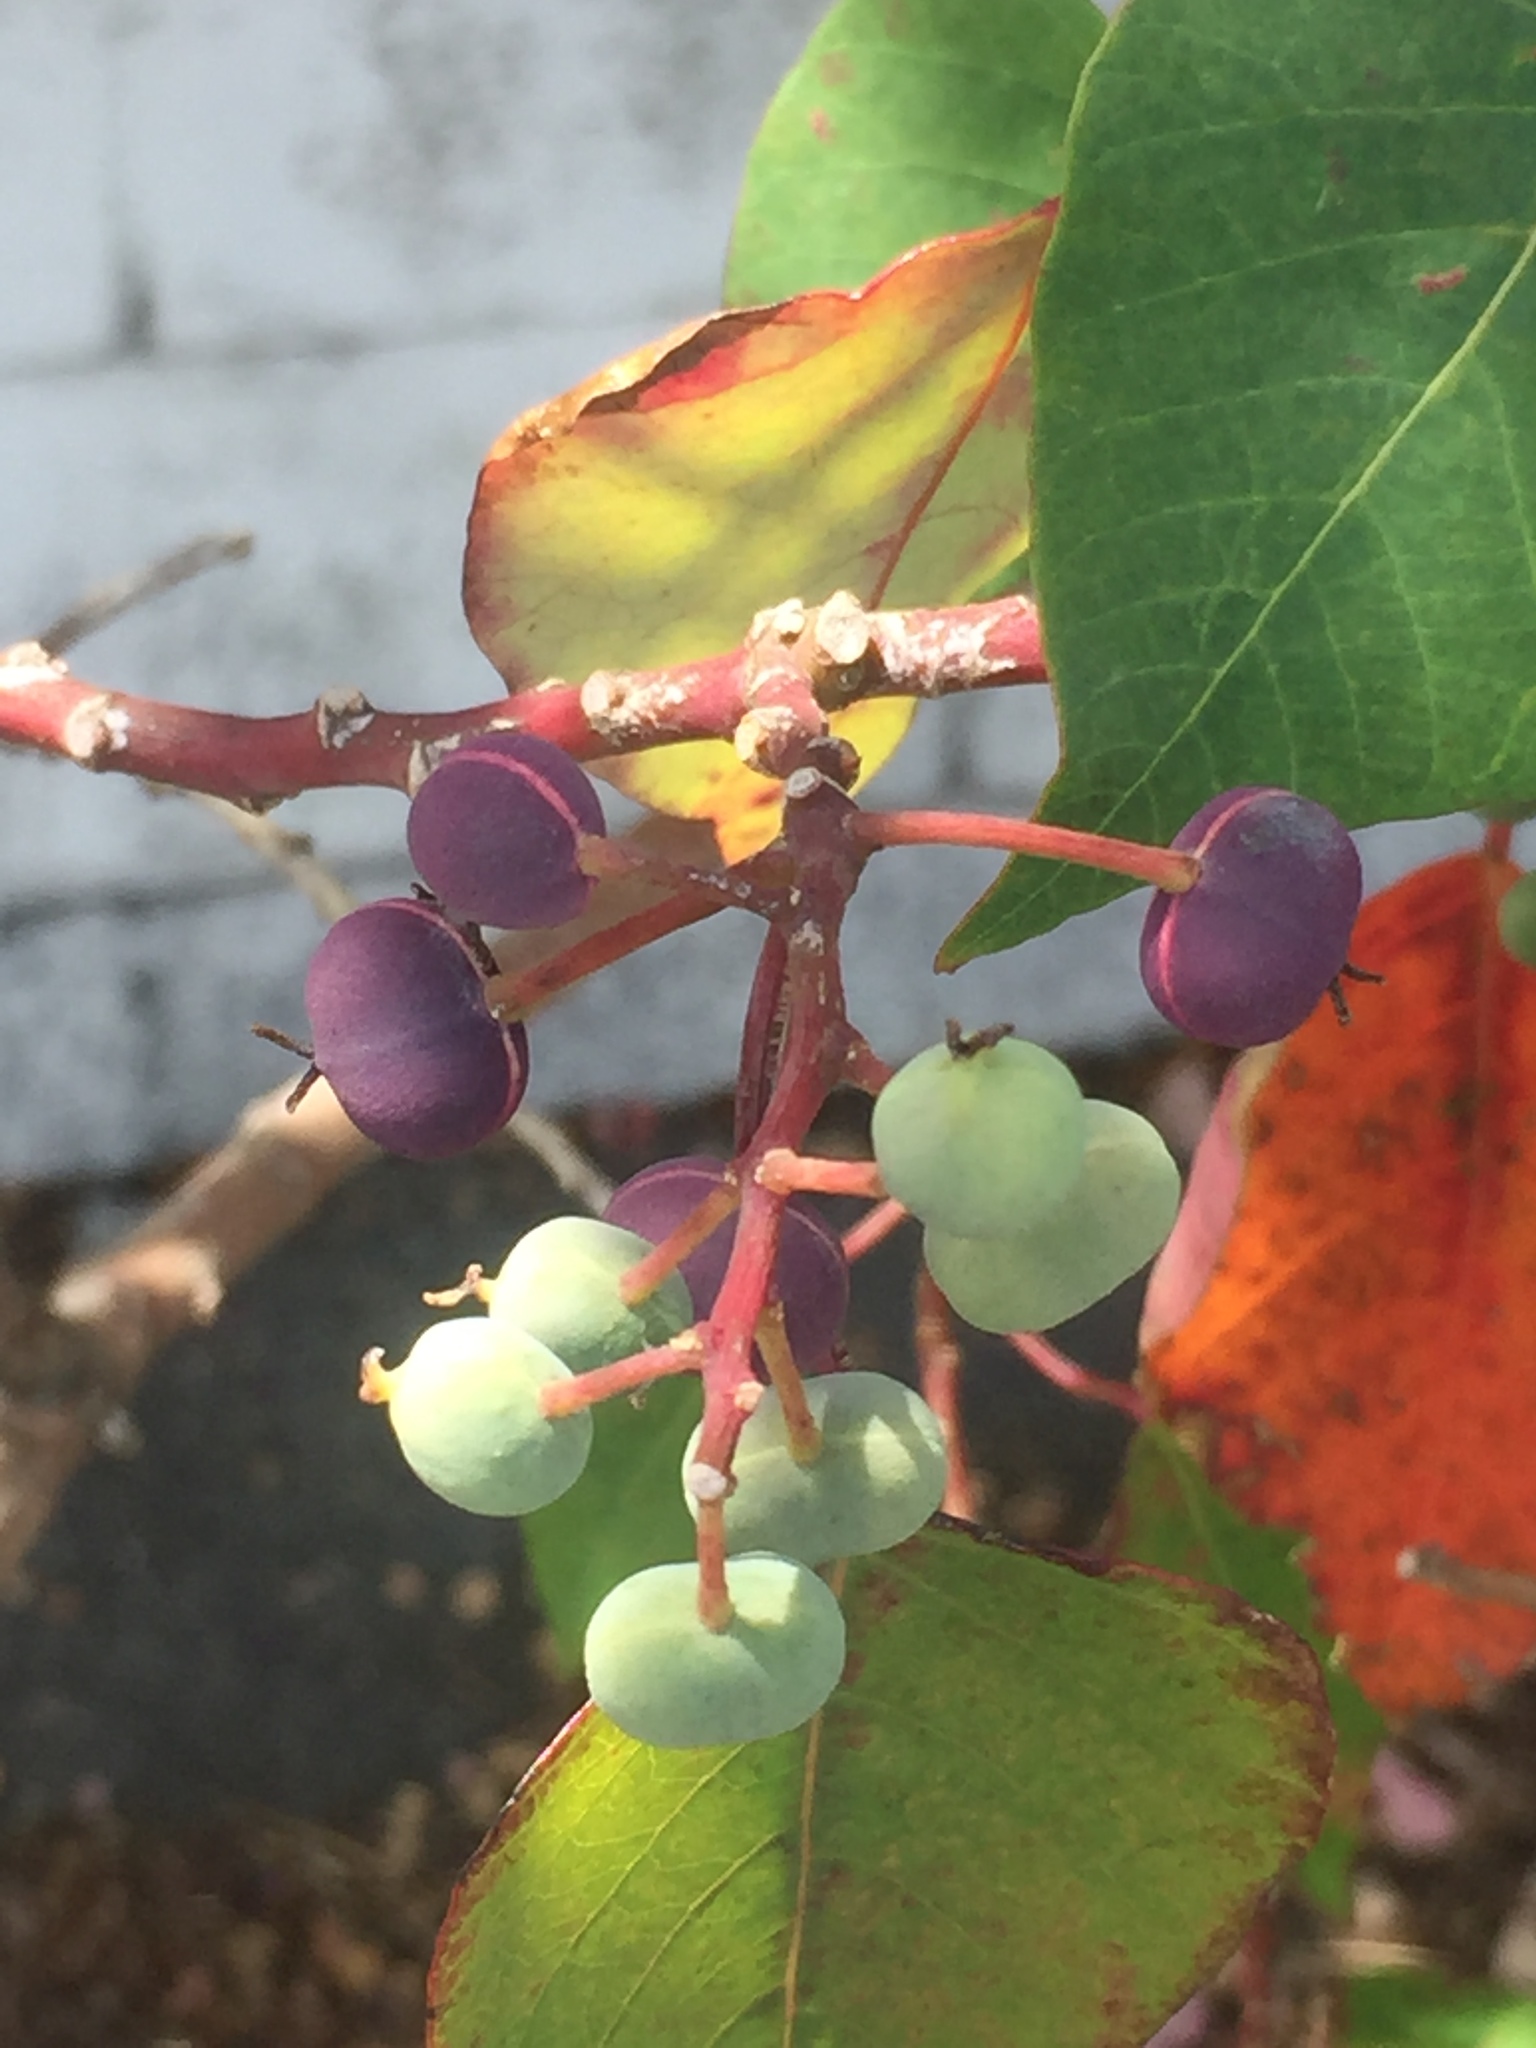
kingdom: Plantae
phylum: Tracheophyta
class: Magnoliopsida
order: Malpighiales
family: Euphorbiaceae
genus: Homalanthus
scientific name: Homalanthus populifolius
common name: Queensland poplar
